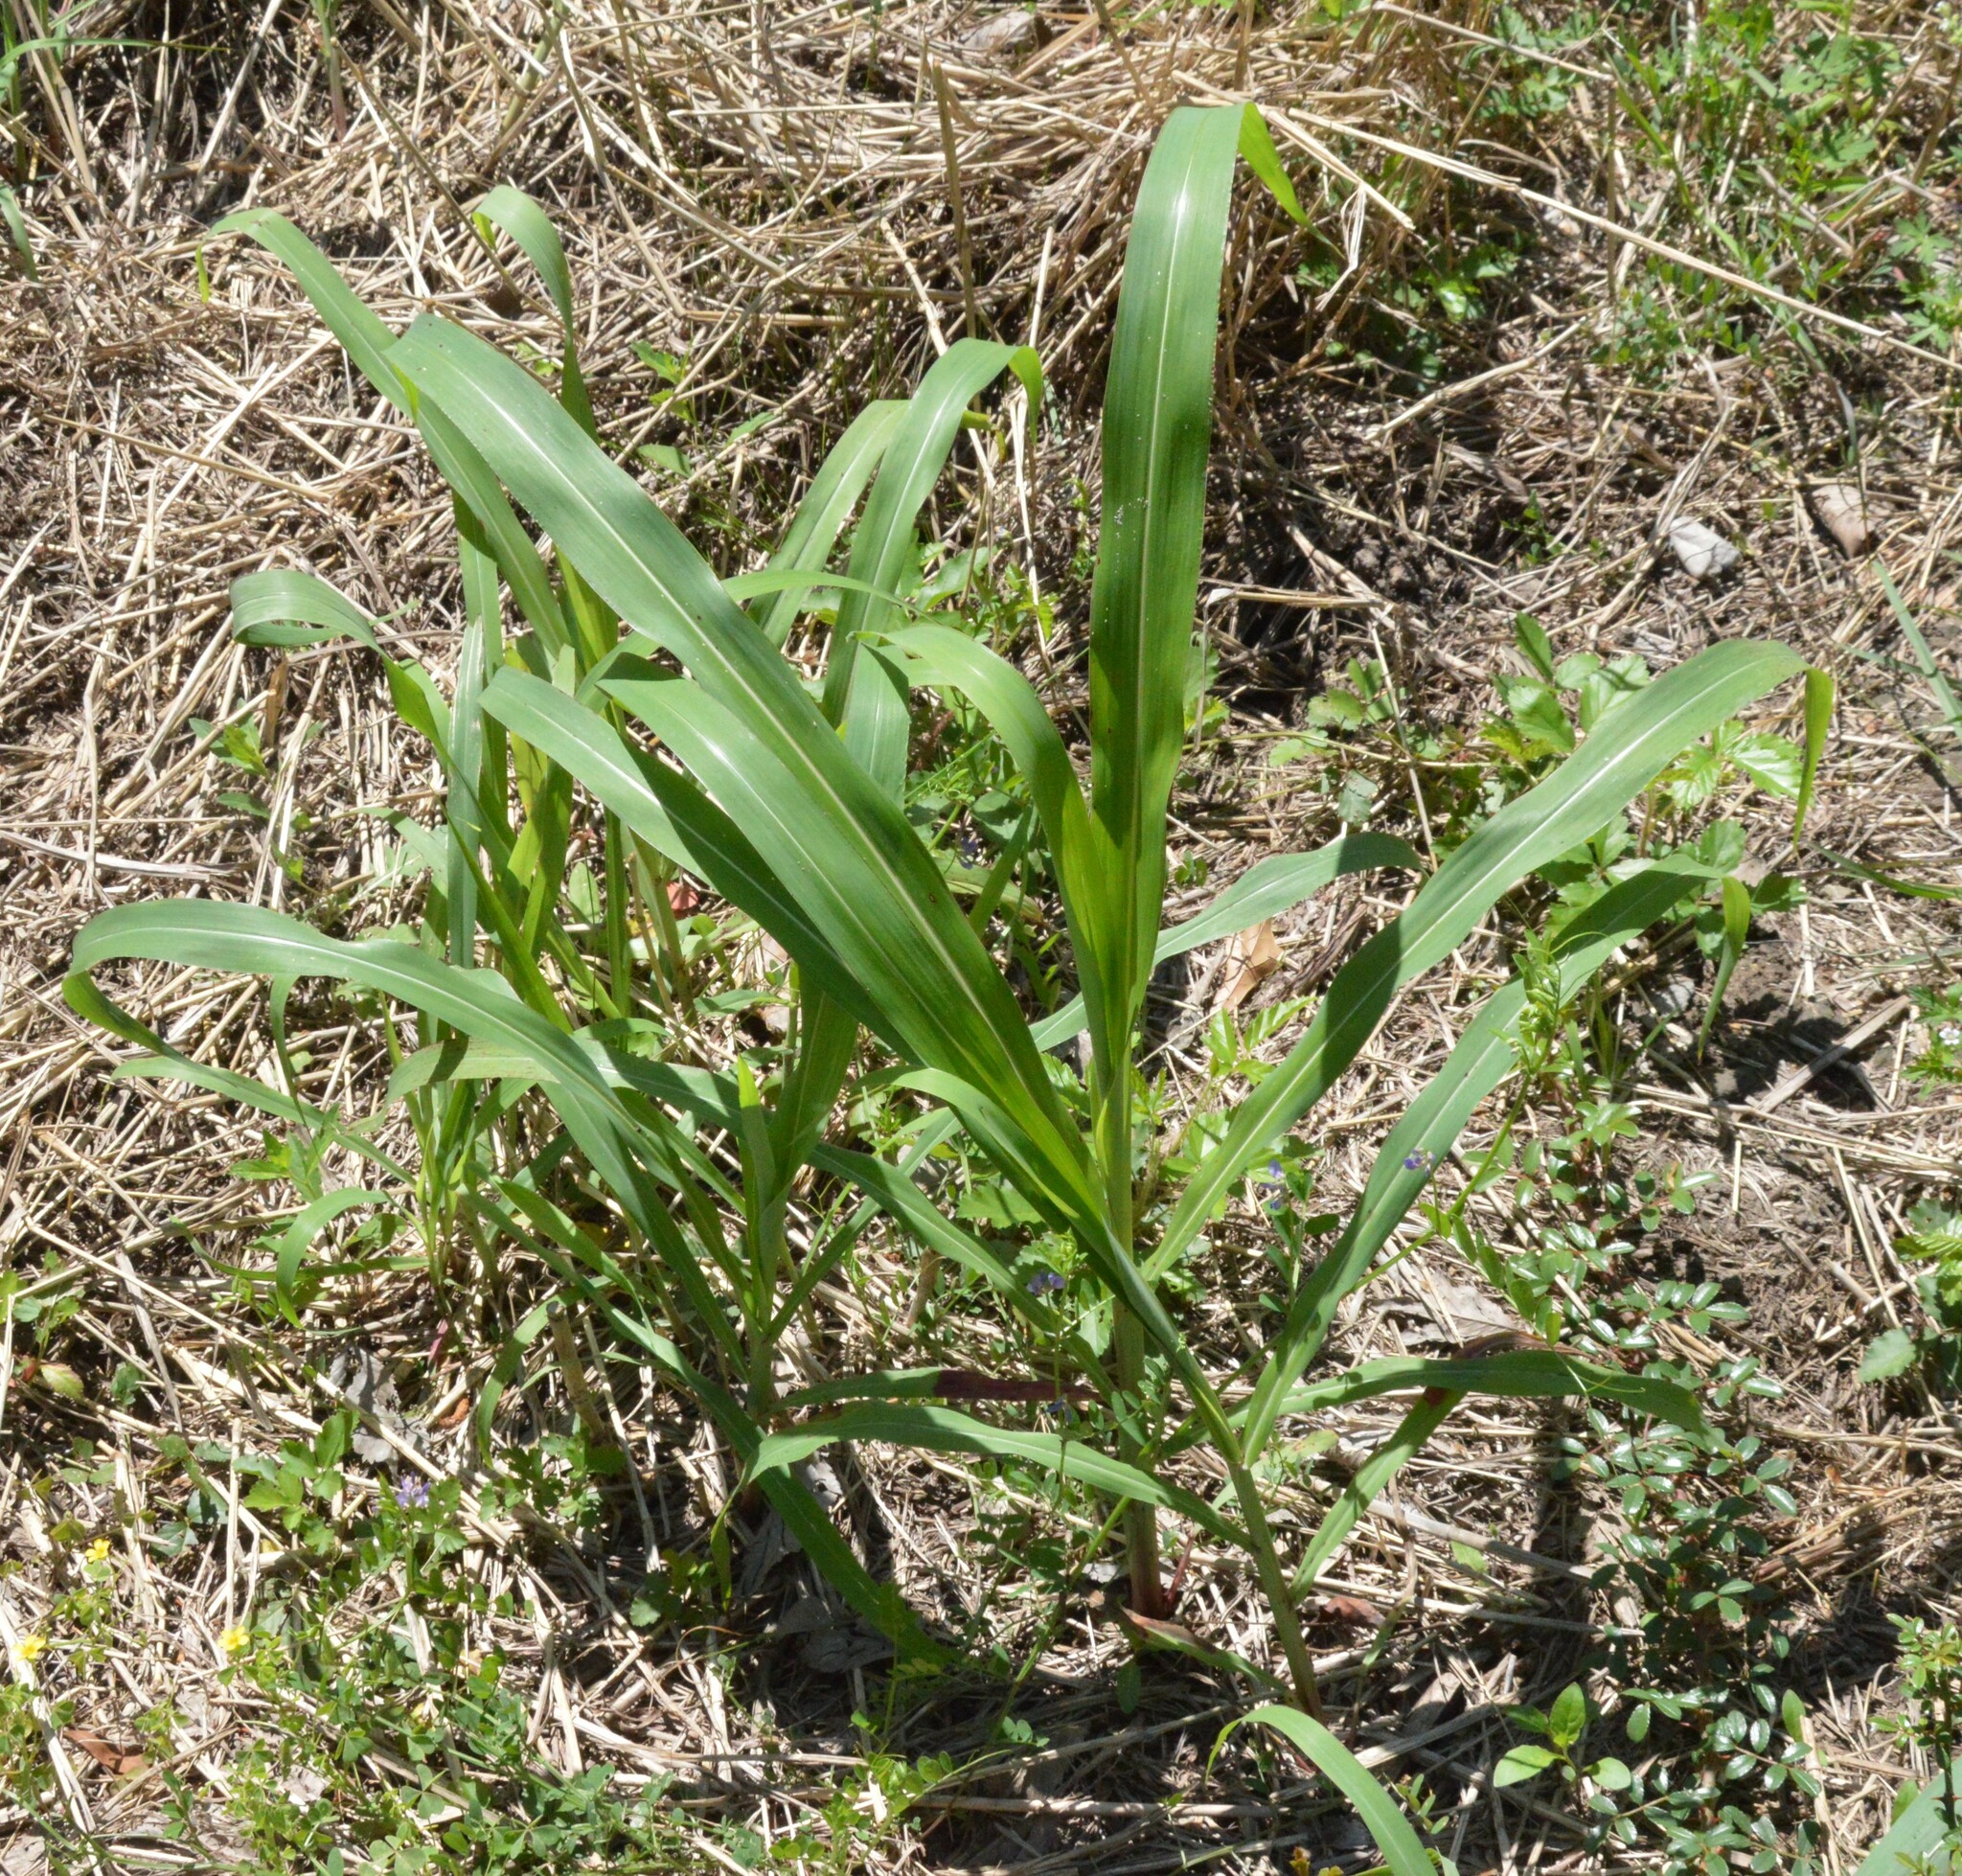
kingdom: Plantae
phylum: Tracheophyta
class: Liliopsida
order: Poales
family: Poaceae
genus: Sorghum
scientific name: Sorghum halepense
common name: Johnson-grass
